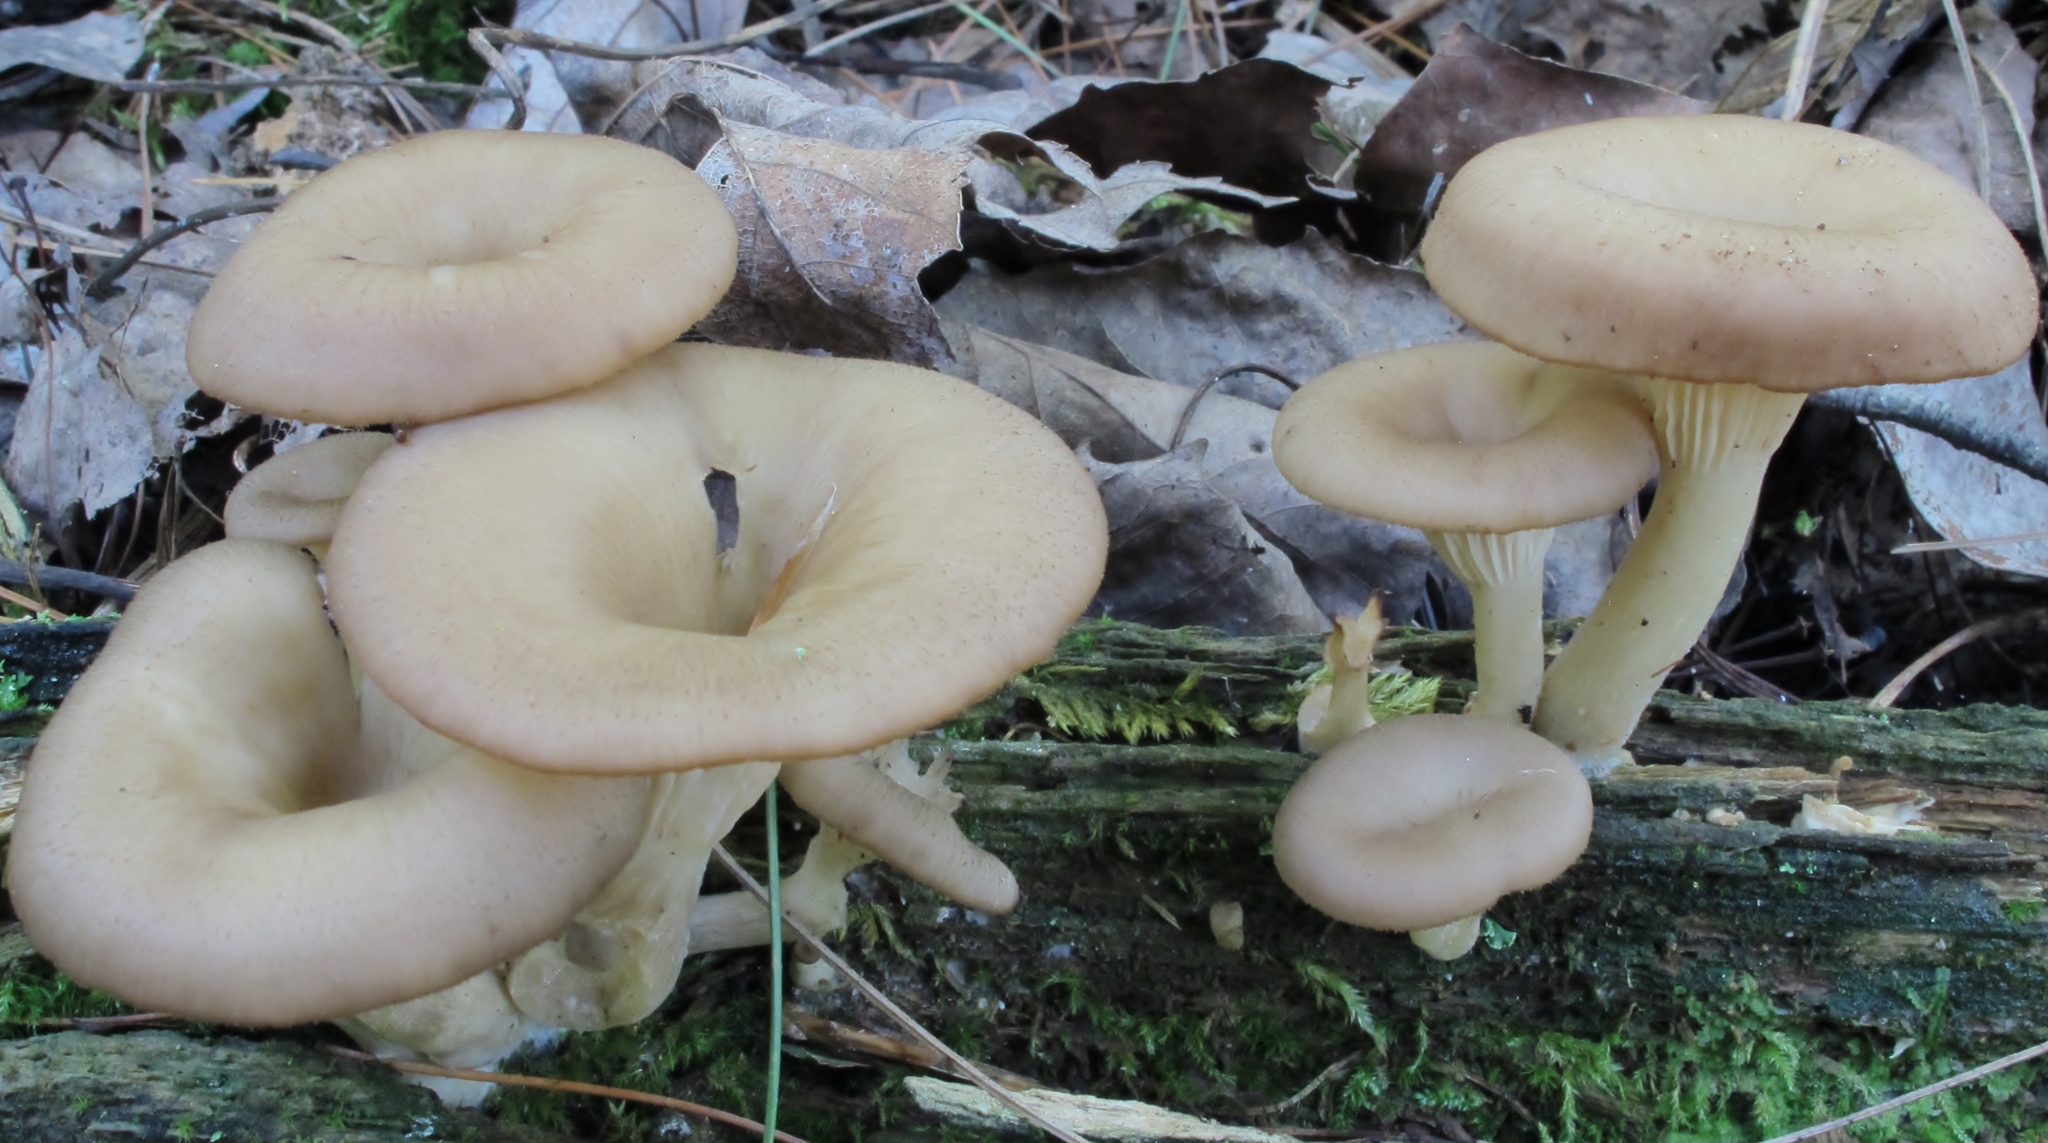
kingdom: Fungi
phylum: Basidiomycota
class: Agaricomycetes
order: Agaricales
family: Pseudoclitocybaceae
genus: Pseudoclitocybe
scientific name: Pseudoclitocybe cyathiformis
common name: Goblet
